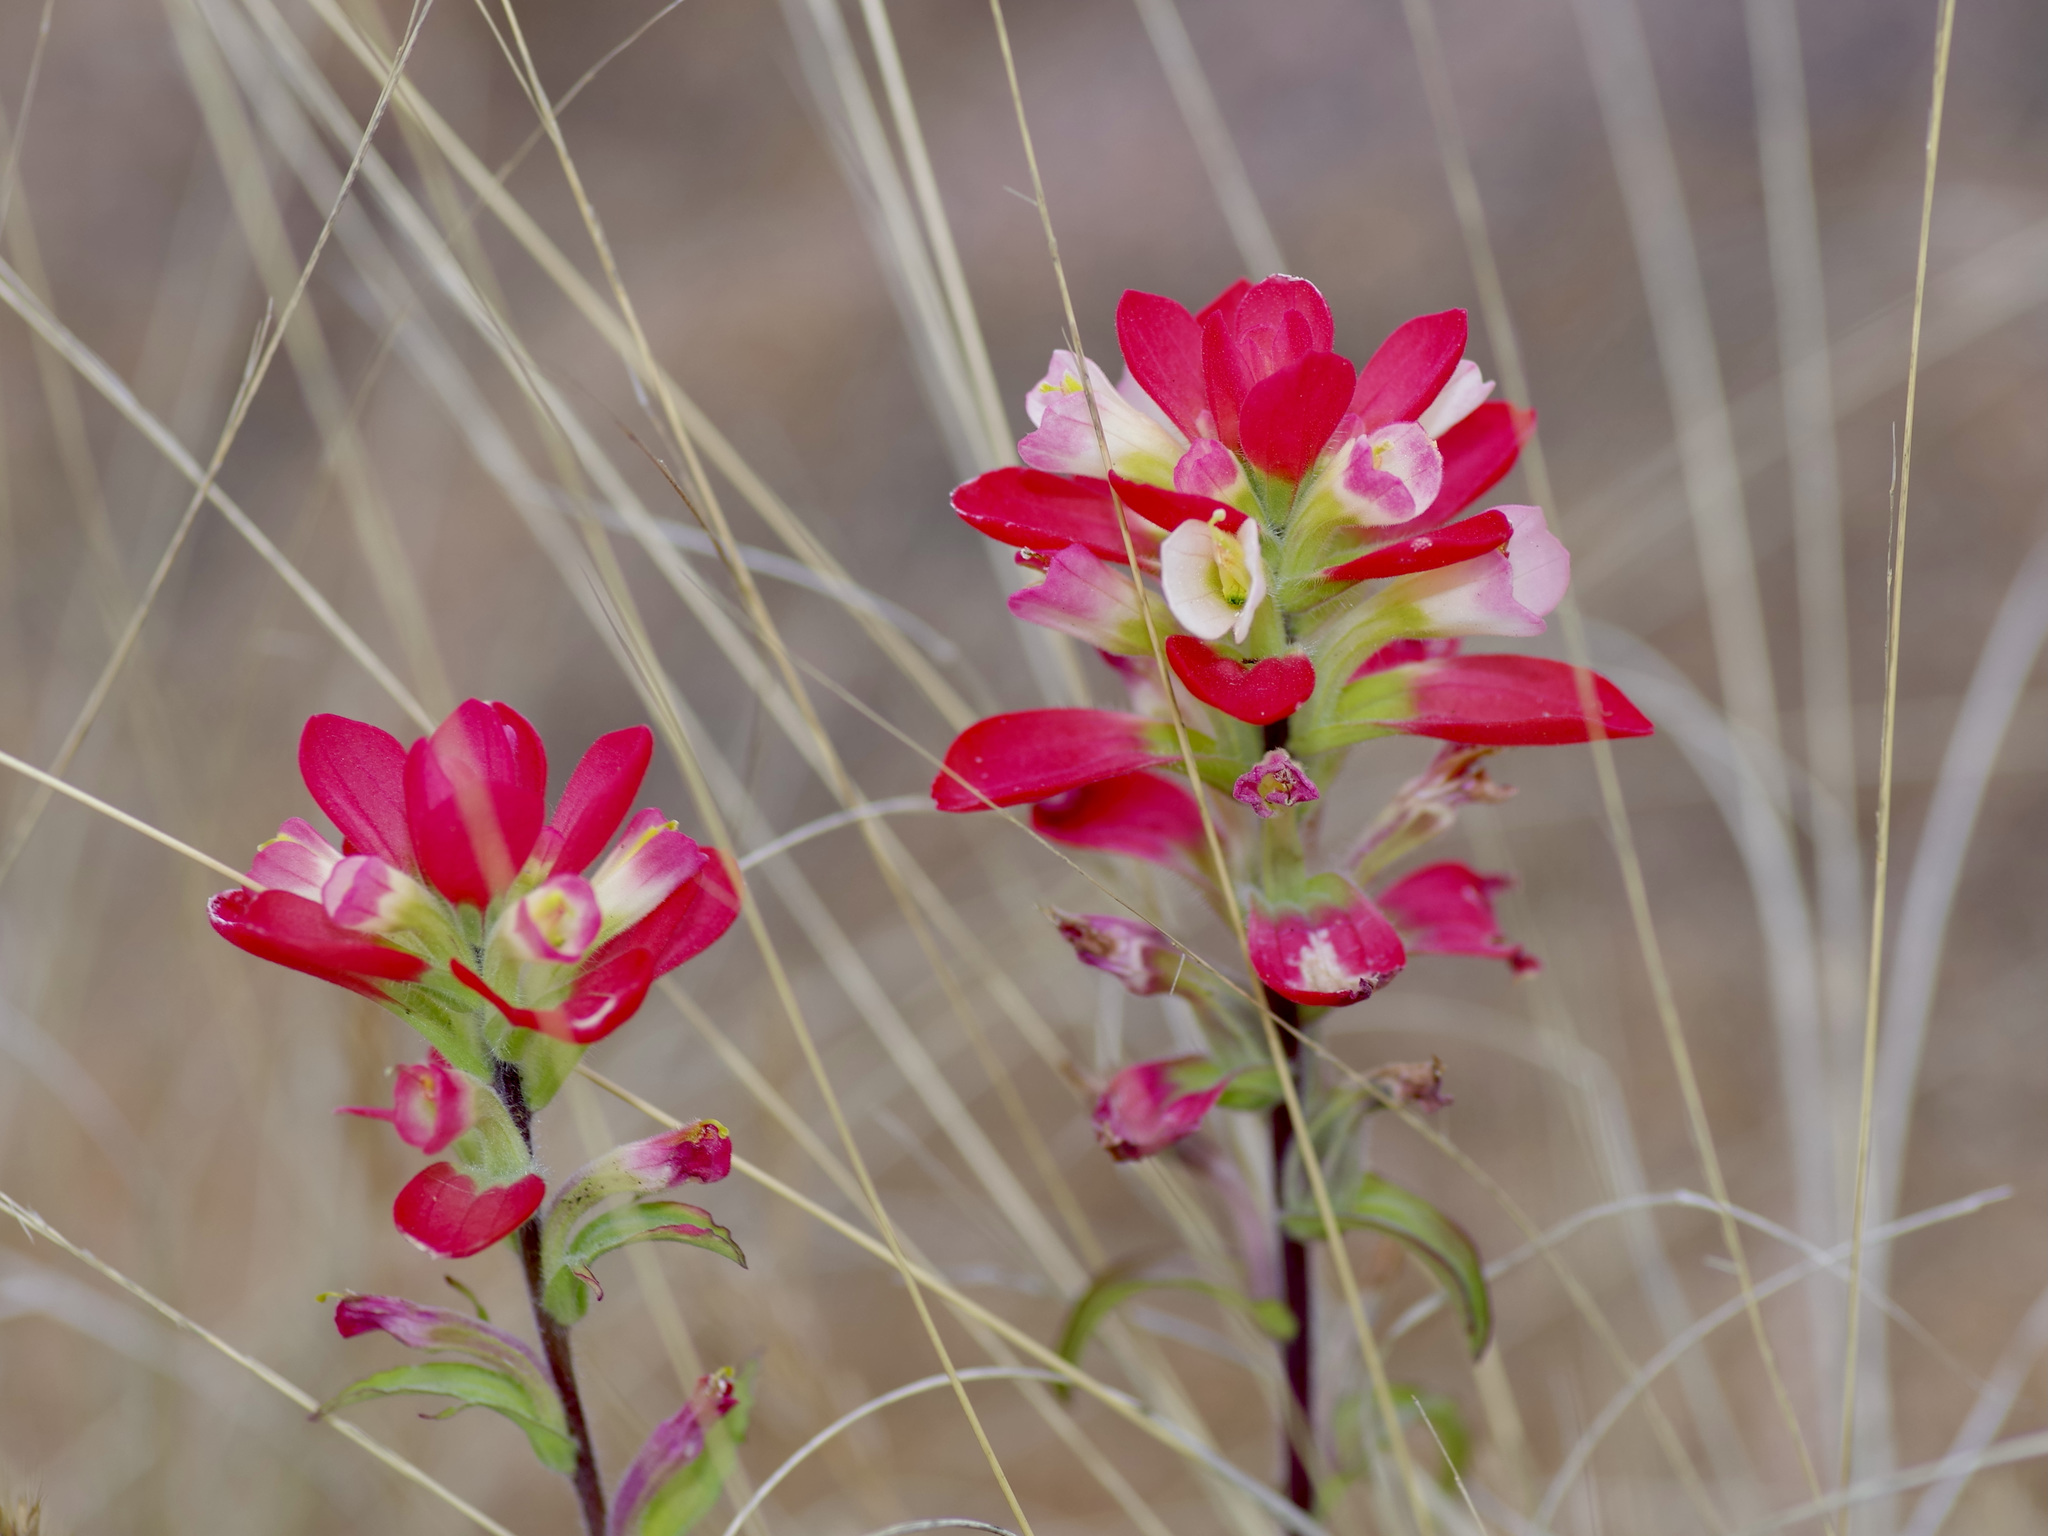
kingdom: Plantae
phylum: Tracheophyta
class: Magnoliopsida
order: Lamiales
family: Orobanchaceae
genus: Castilleja
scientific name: Castilleja indivisa
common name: Texas paintbrush
